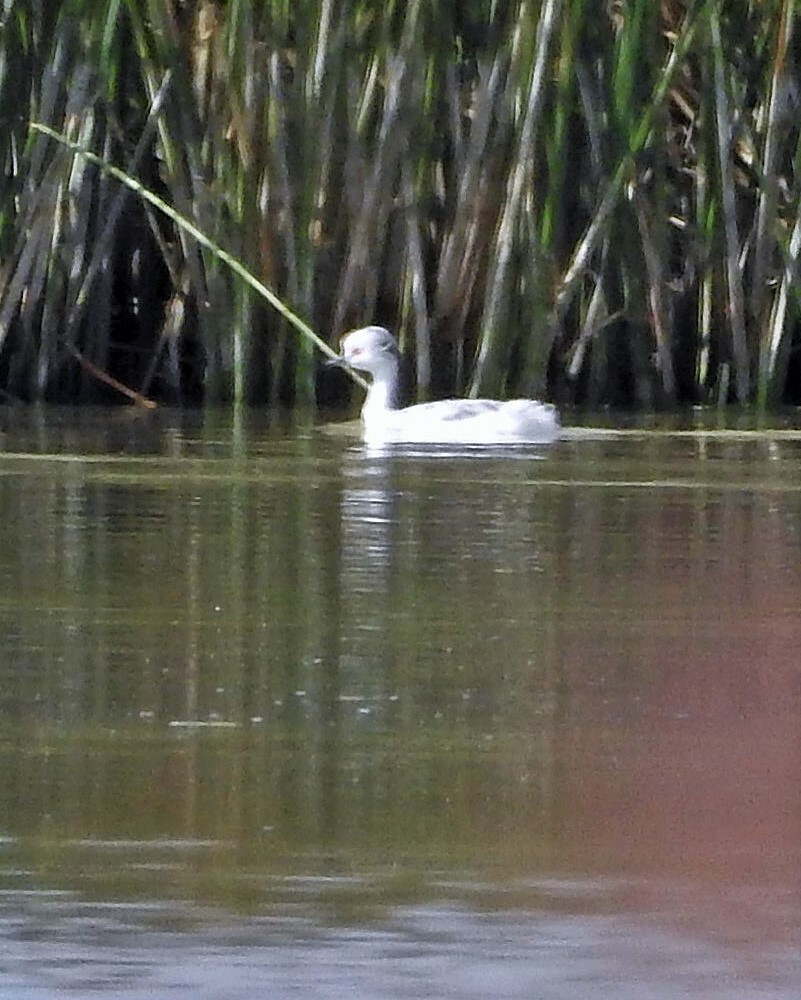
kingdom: Animalia
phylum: Chordata
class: Aves
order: Podicipediformes
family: Podicipedidae
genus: Podiceps
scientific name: Podiceps occipitalis
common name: Silvery grebe
